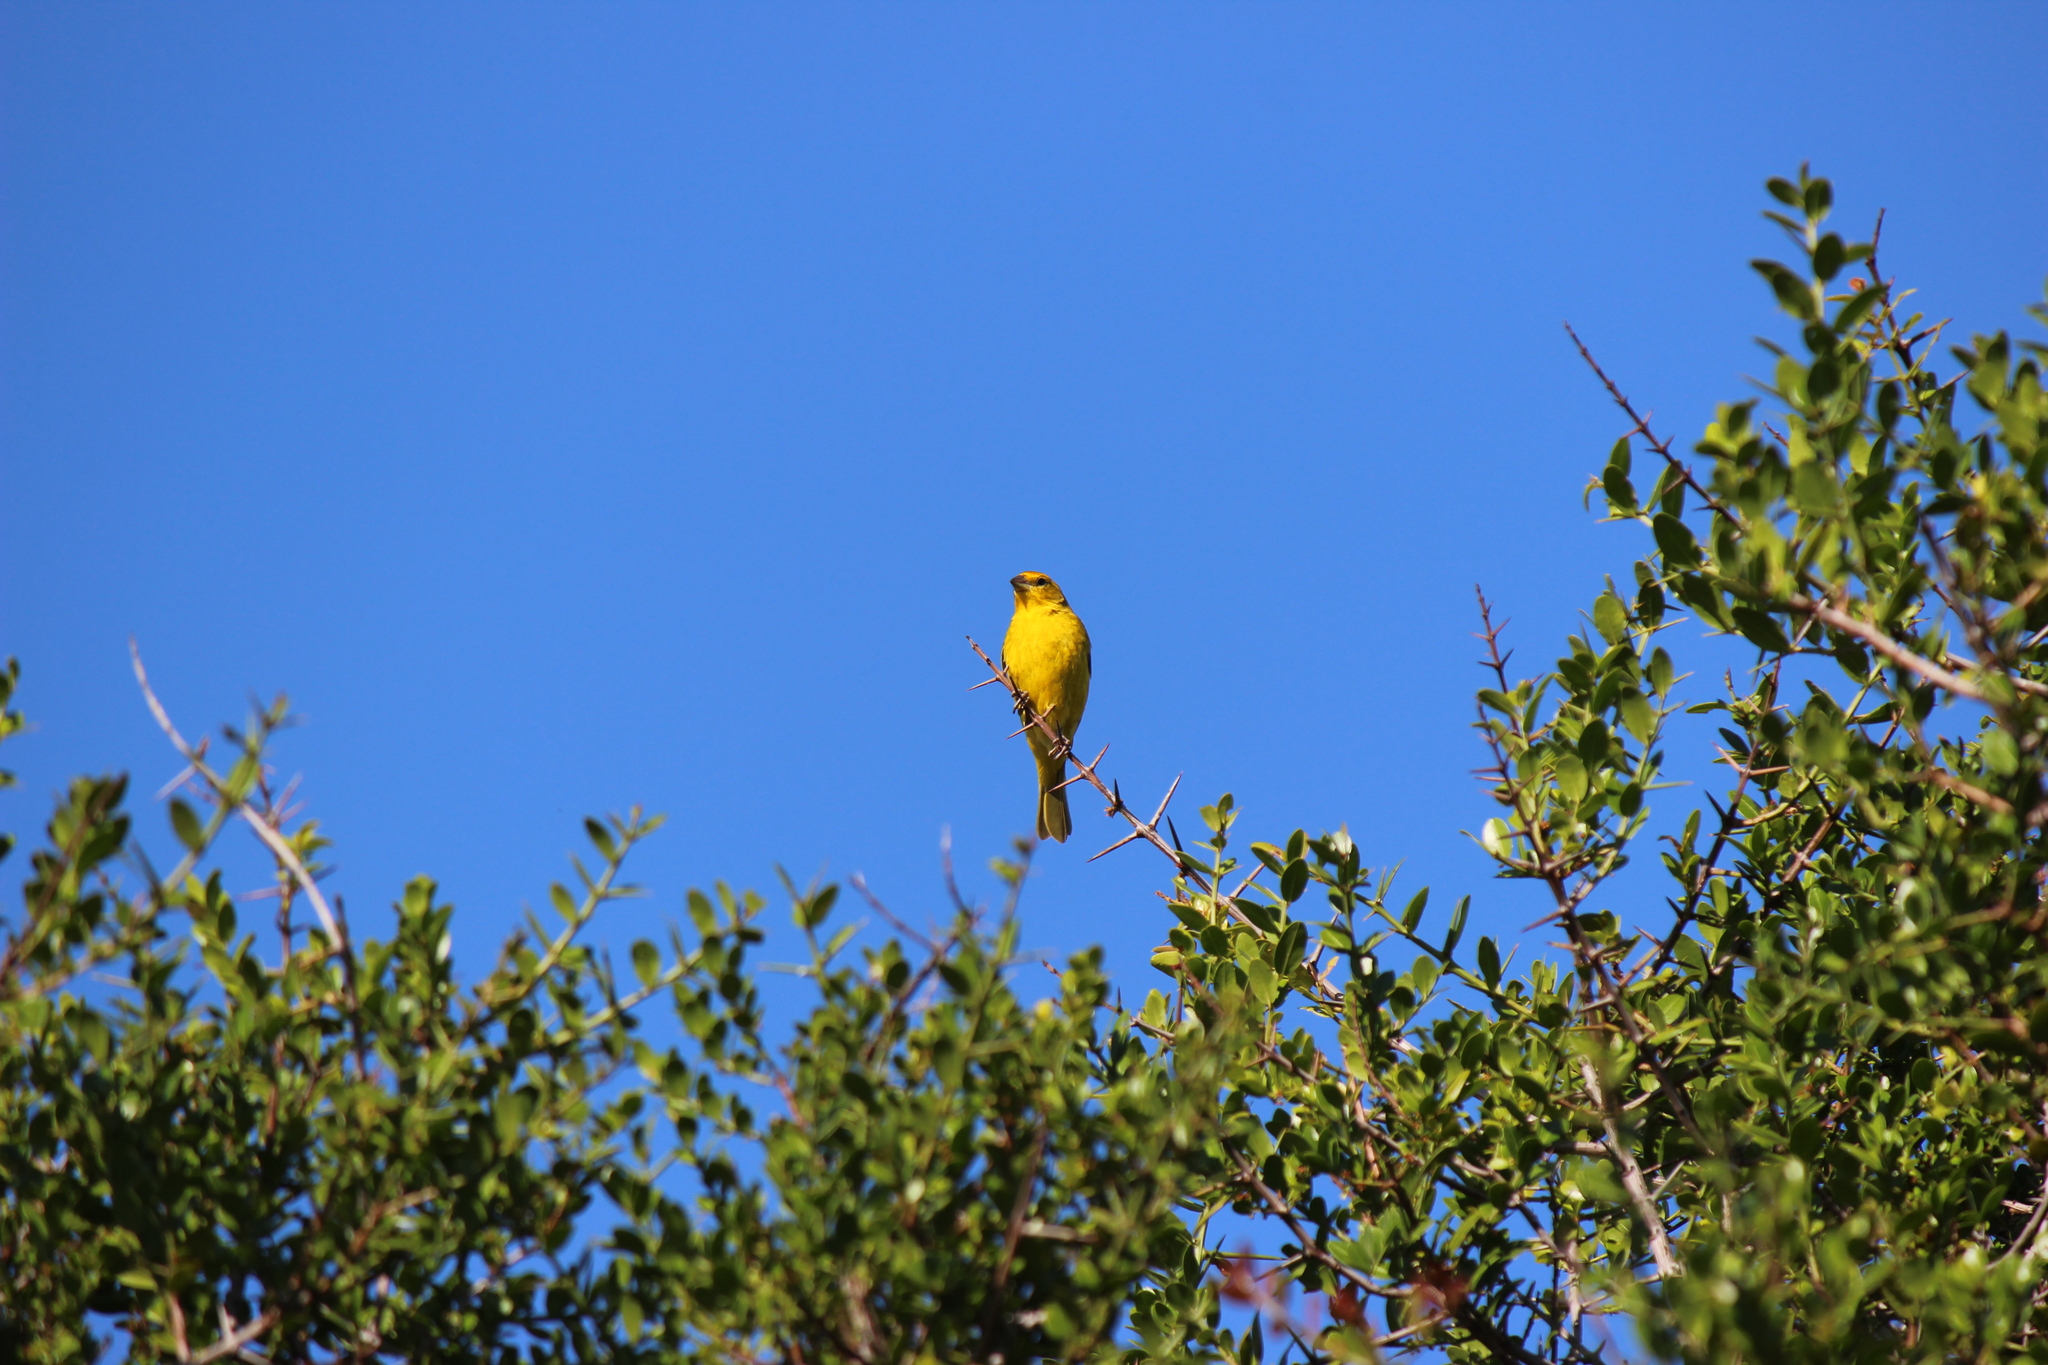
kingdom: Animalia
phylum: Chordata
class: Aves
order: Passeriformes
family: Thraupidae
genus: Sicalis
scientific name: Sicalis flaveola
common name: Saffron finch
